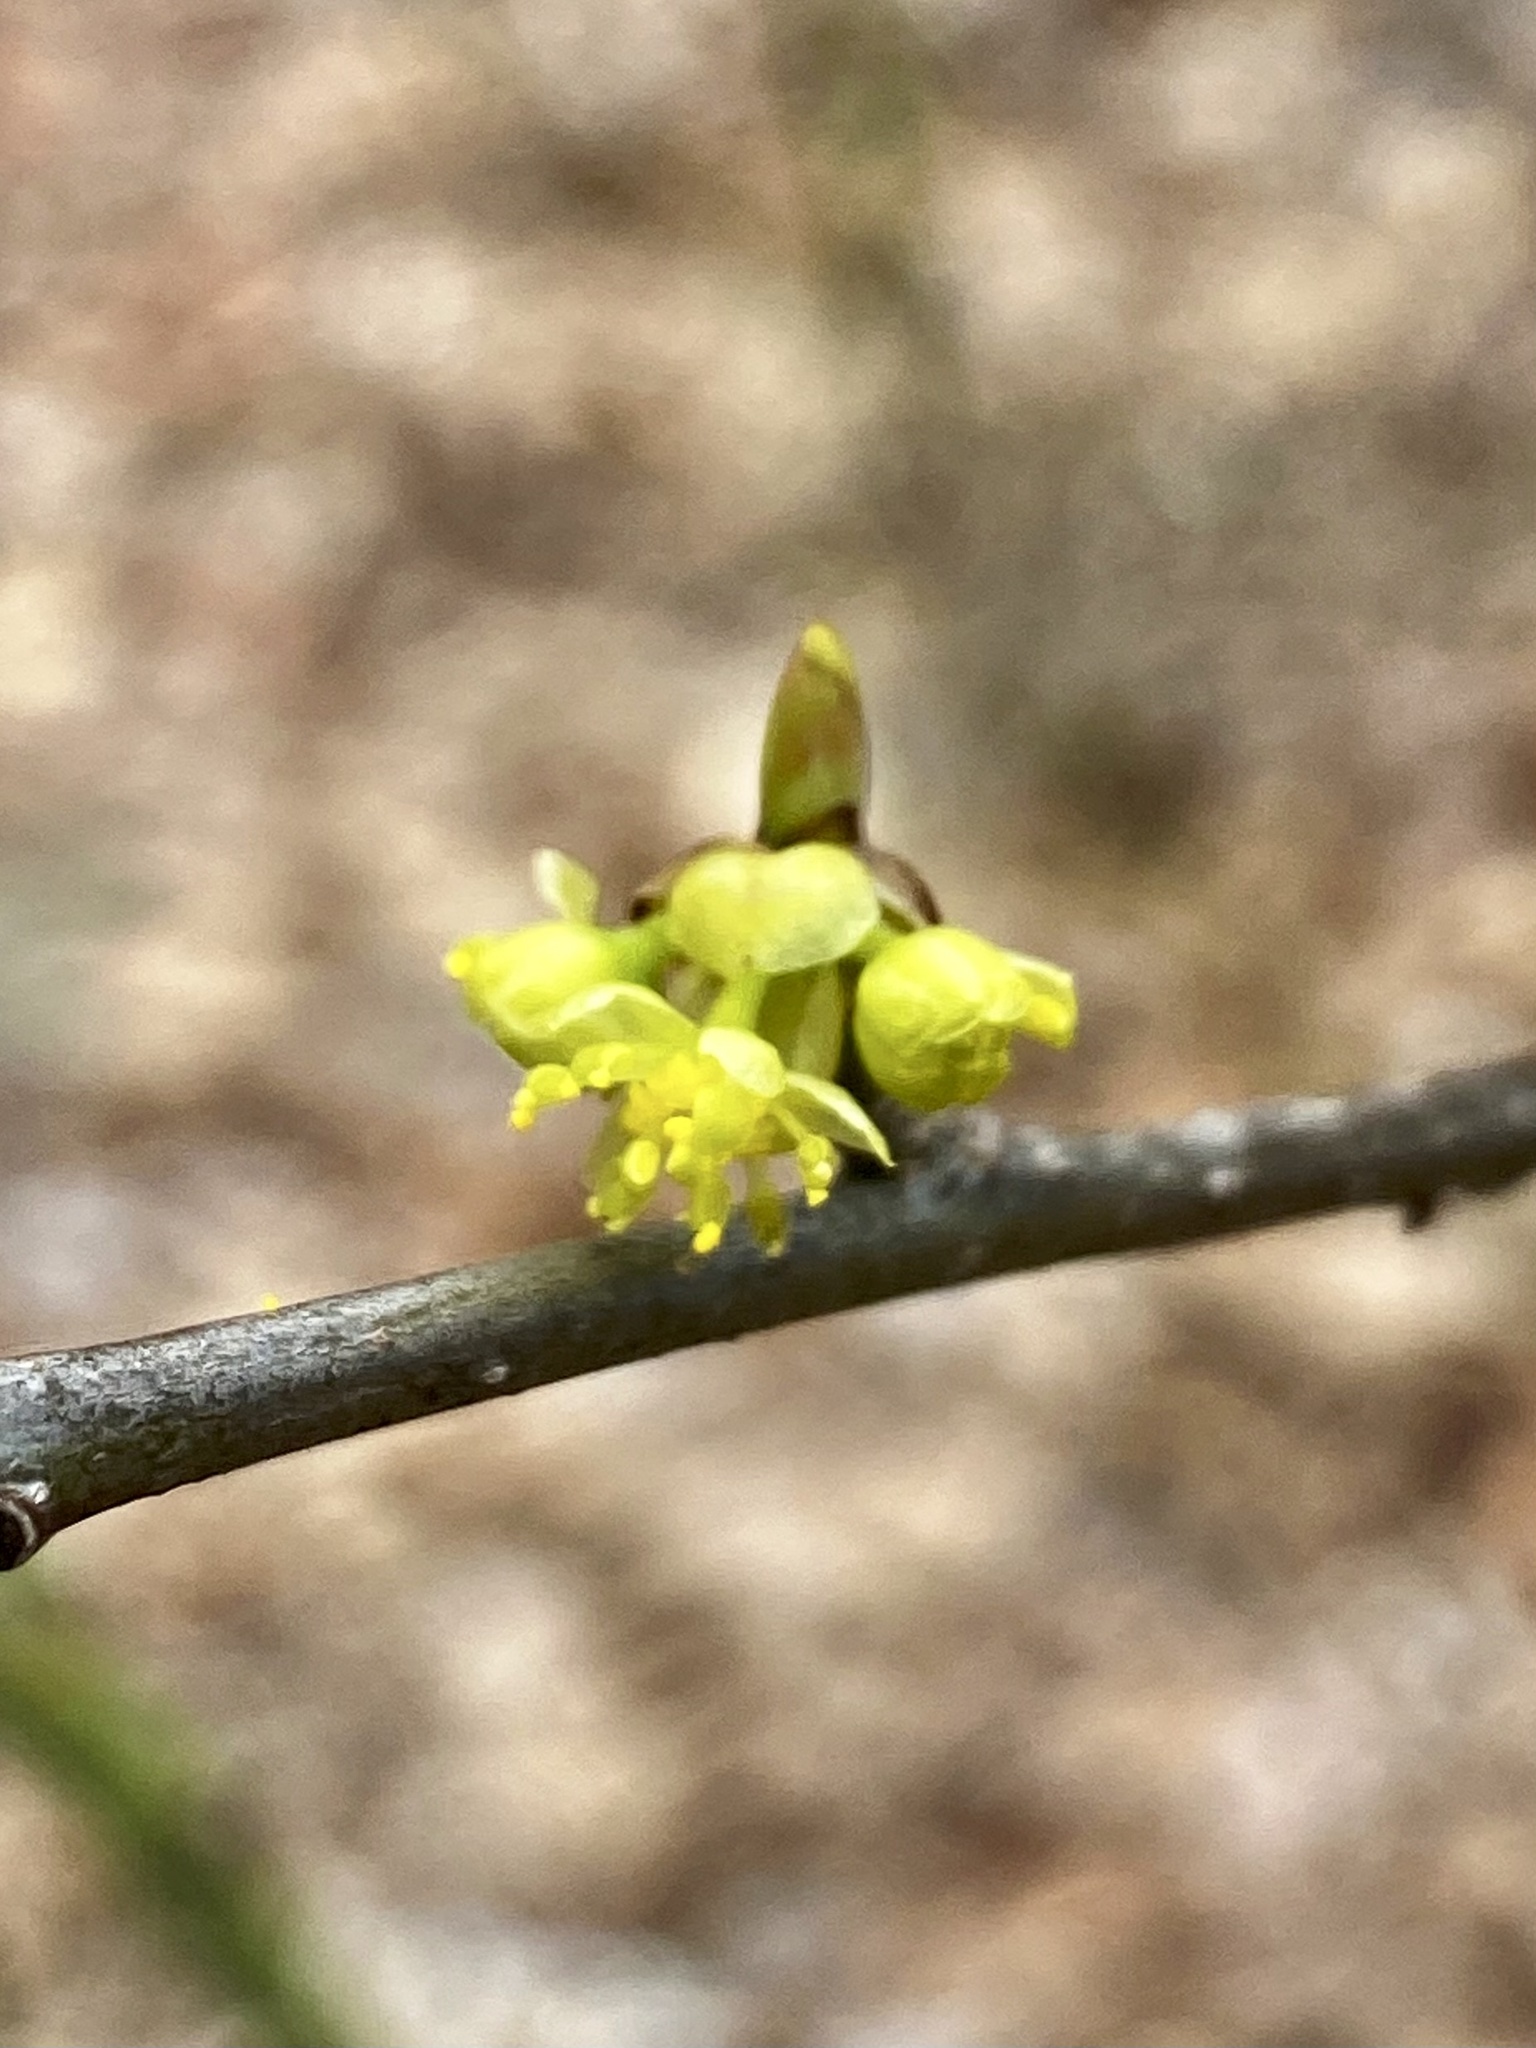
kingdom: Plantae
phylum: Tracheophyta
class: Magnoliopsida
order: Laurales
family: Lauraceae
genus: Lindera
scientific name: Lindera benzoin
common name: Spicebush
